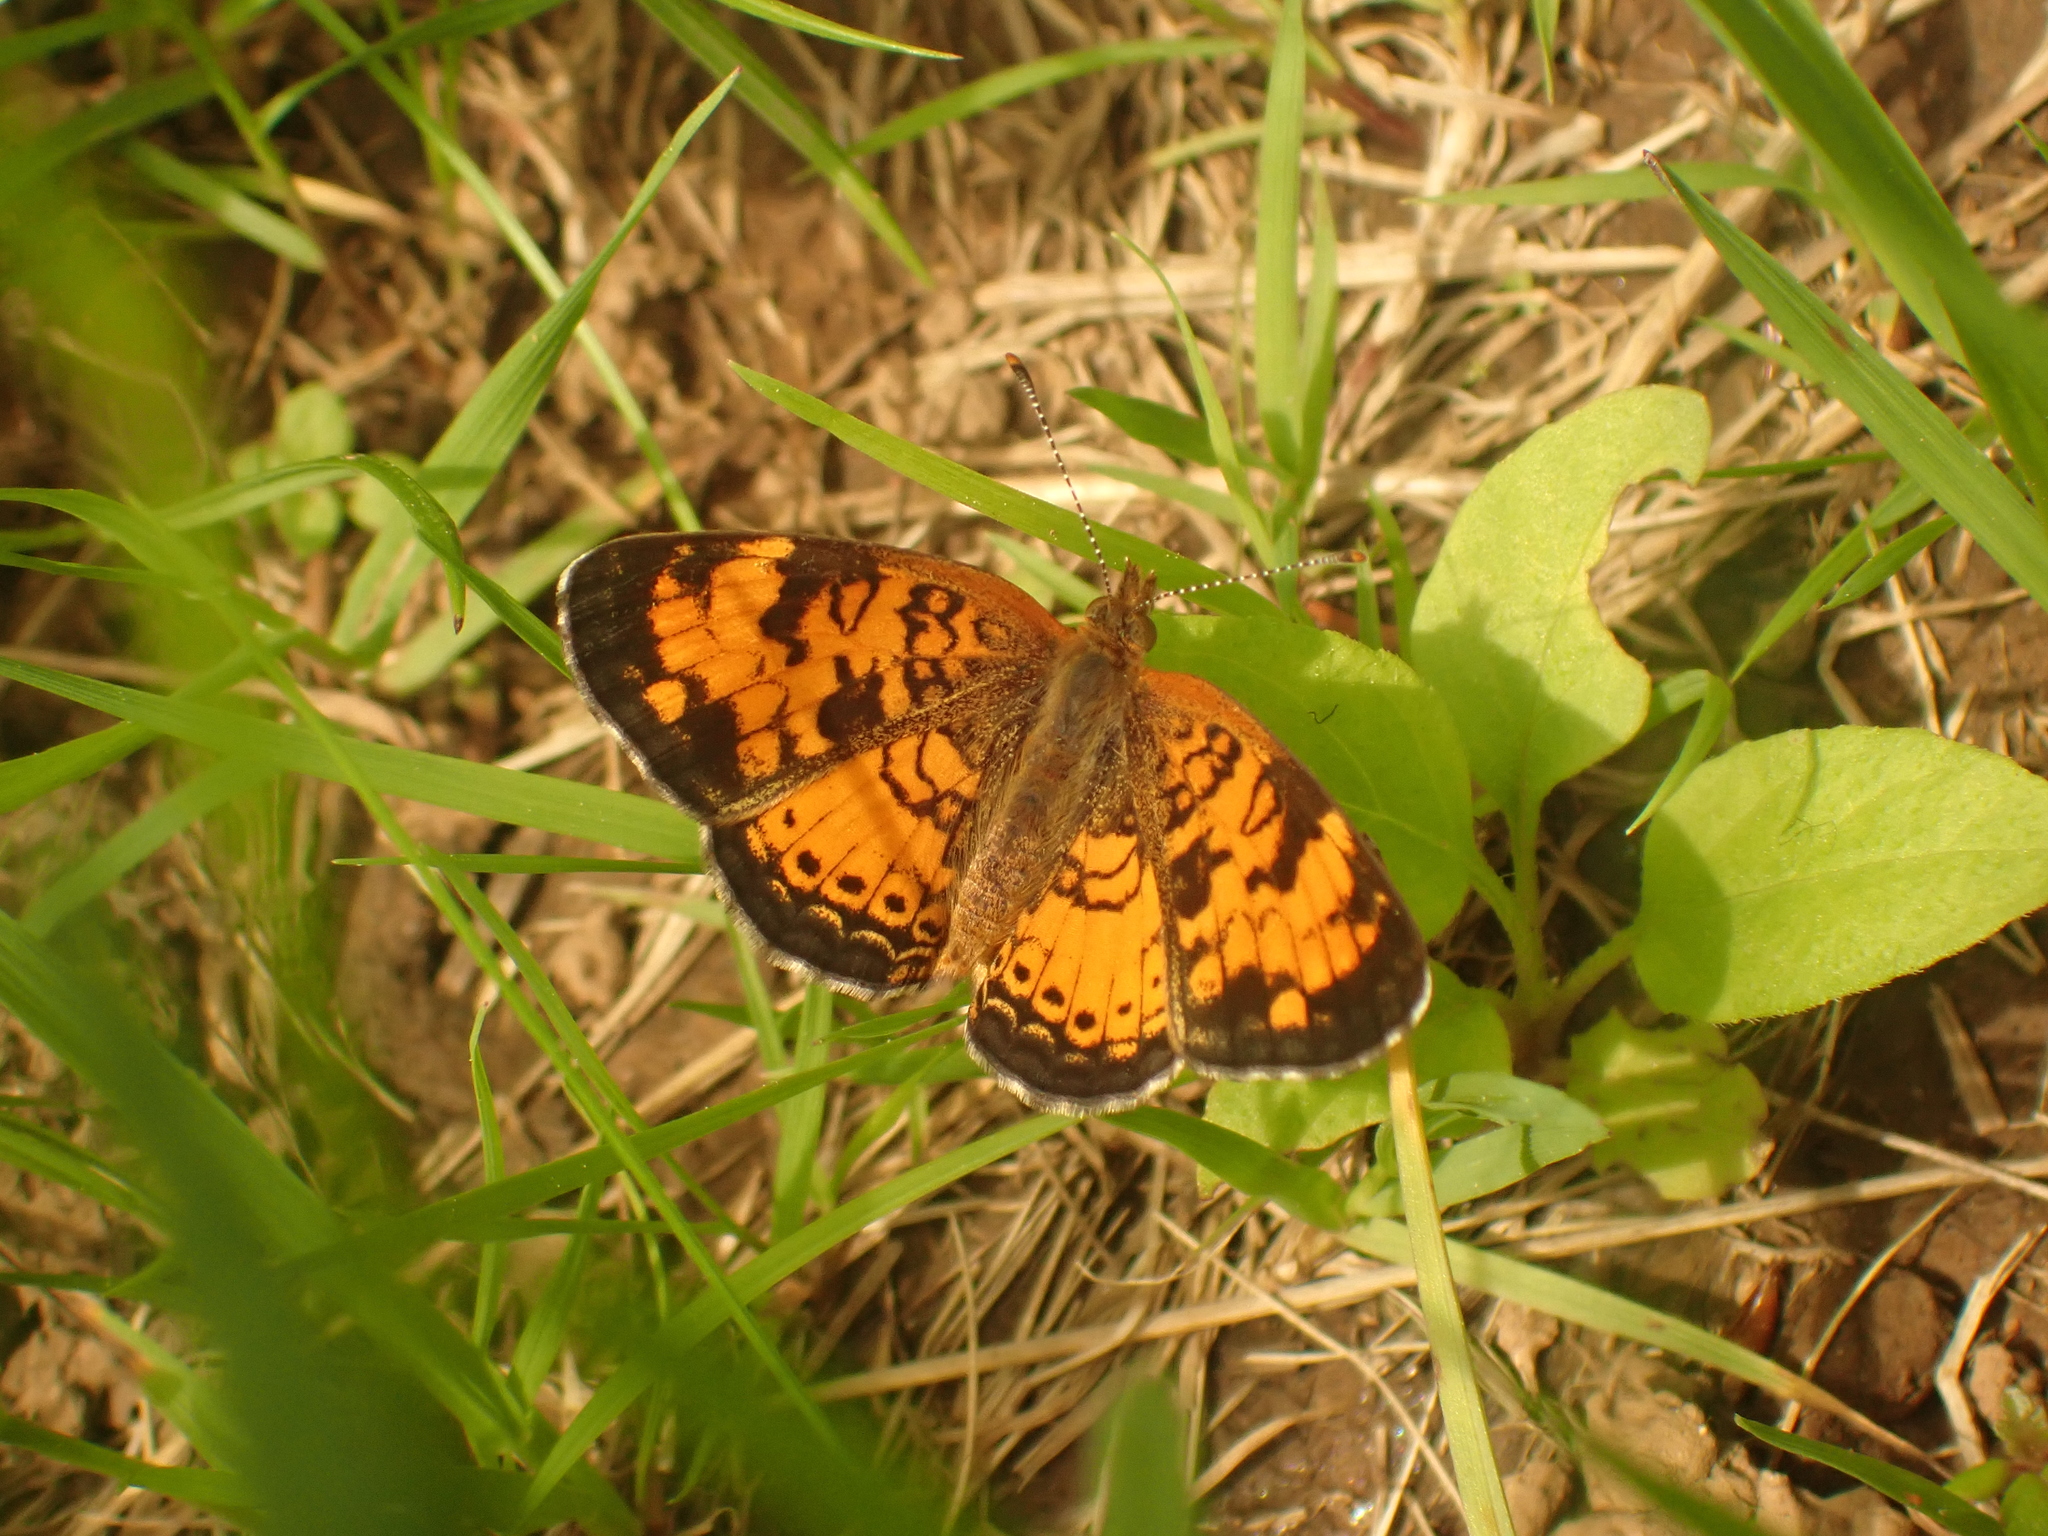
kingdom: Animalia
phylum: Arthropoda
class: Insecta
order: Lepidoptera
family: Nymphalidae
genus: Phyciodes
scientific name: Phyciodes tharos
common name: Pearl crescent
